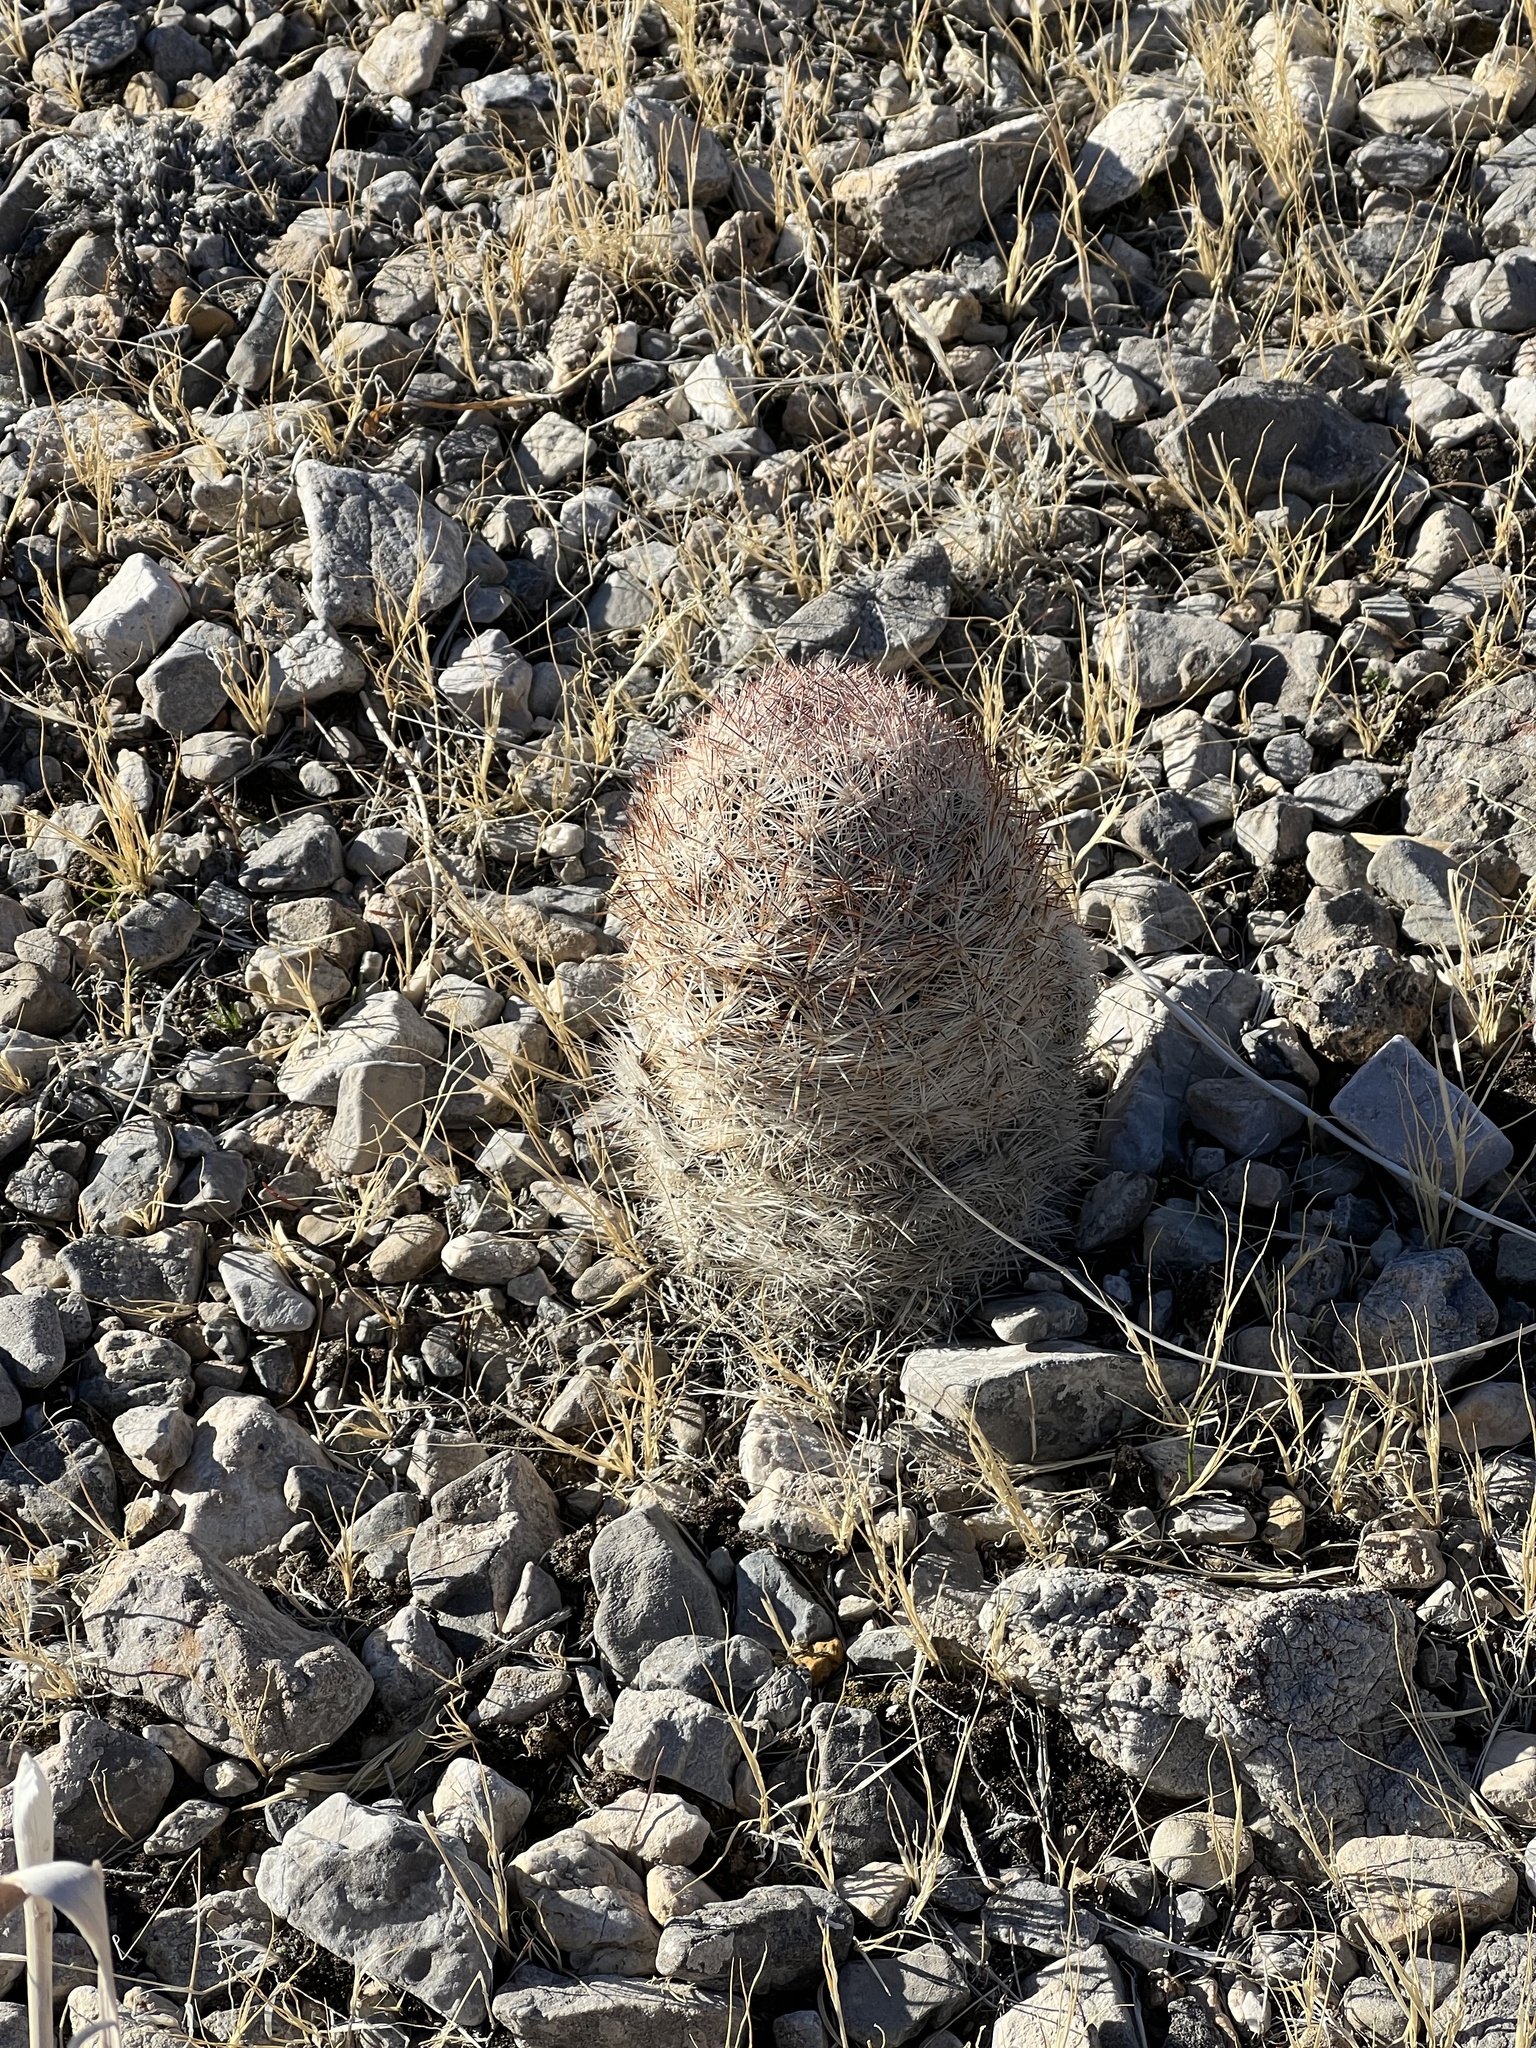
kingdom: Plantae
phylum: Tracheophyta
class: Magnoliopsida
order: Caryophyllales
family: Cactaceae
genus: Pelecyphora
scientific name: Pelecyphora dasyacantha
